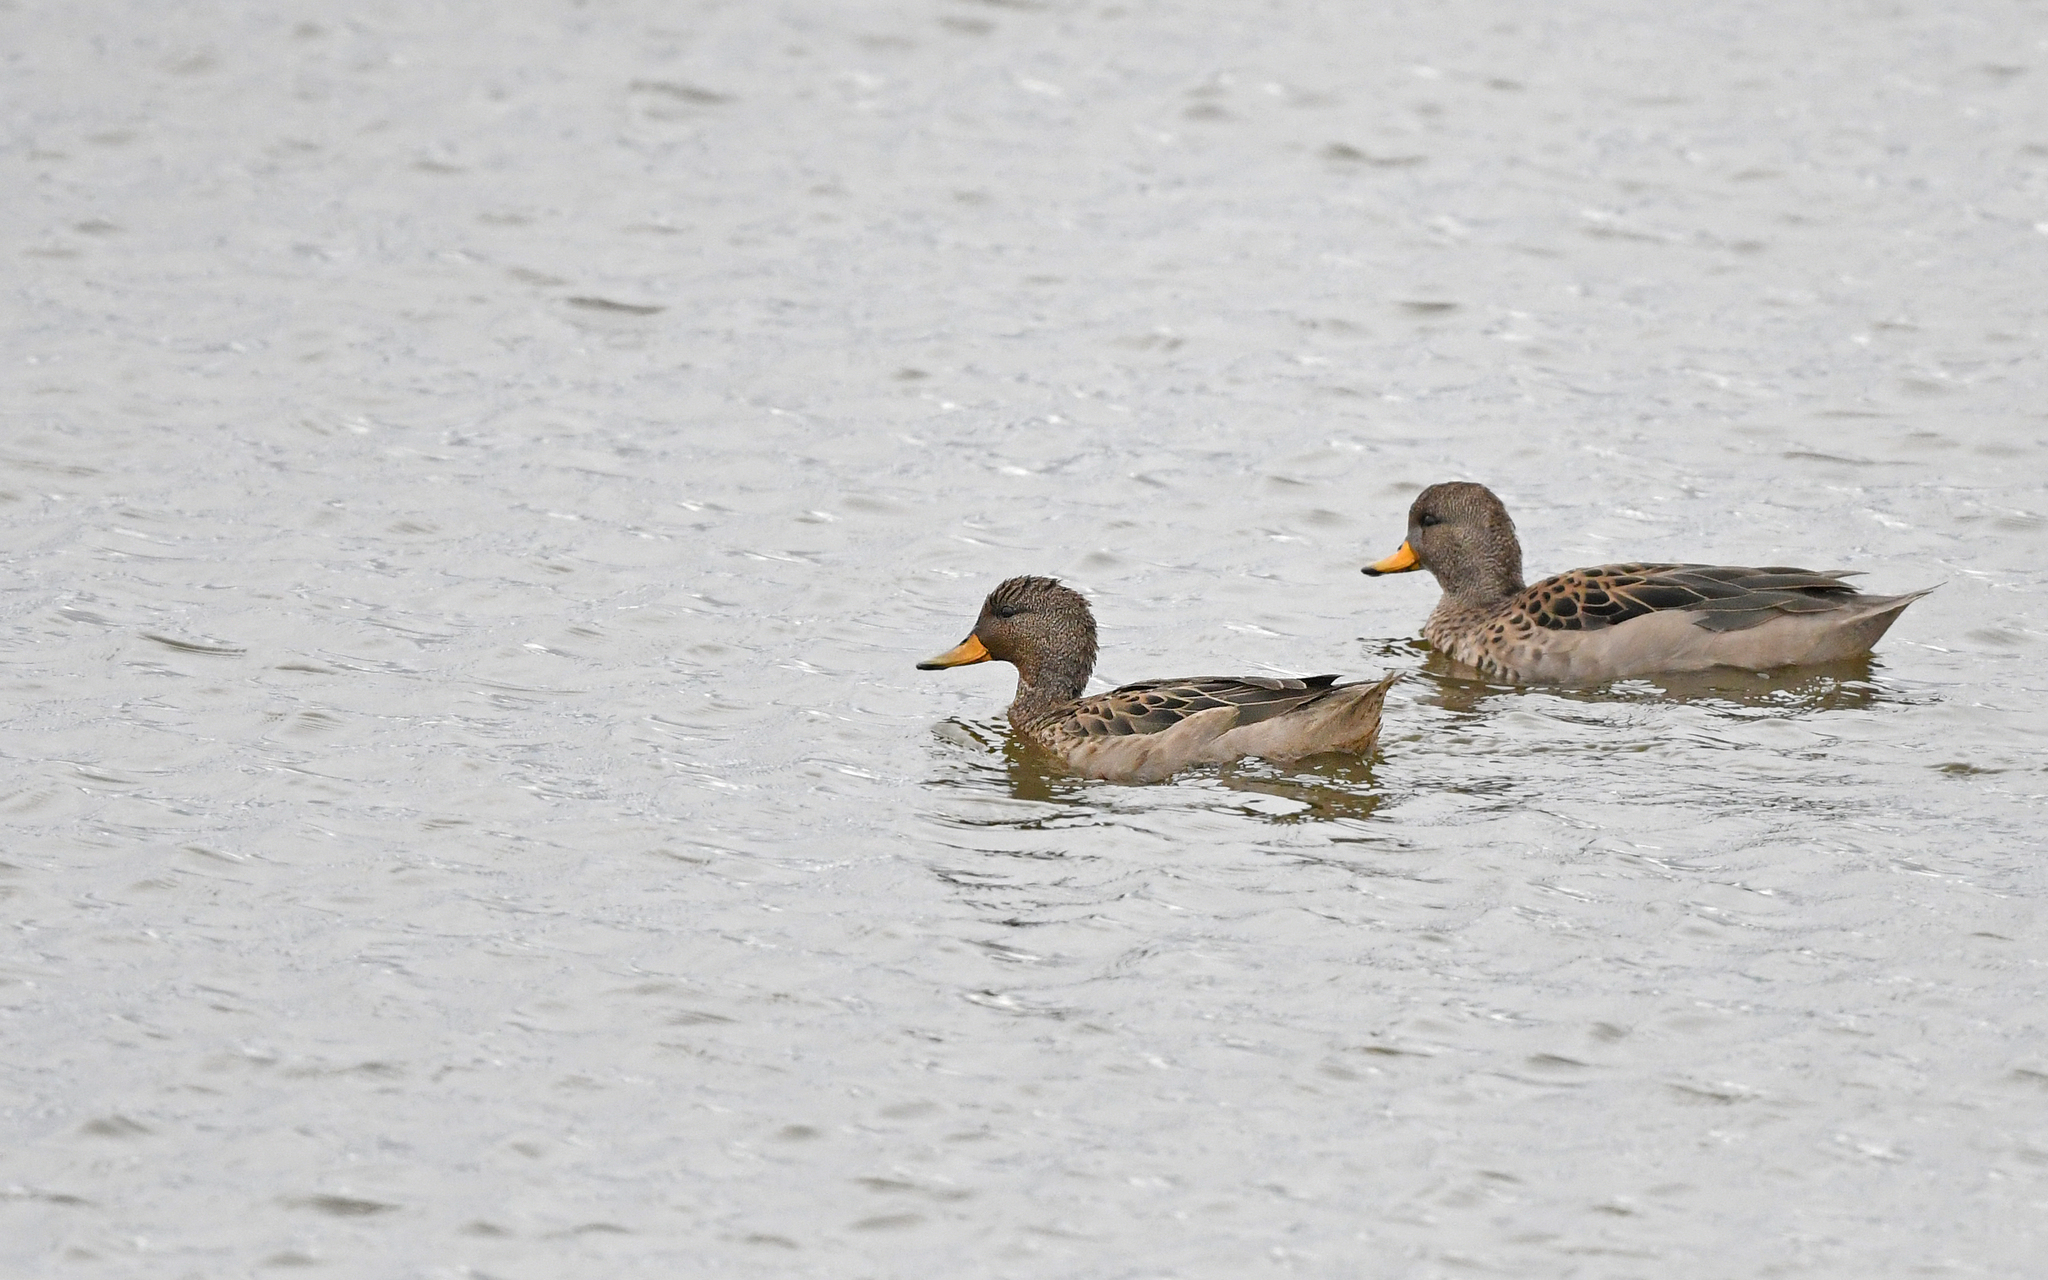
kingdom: Animalia
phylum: Chordata
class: Aves
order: Anseriformes
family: Anatidae
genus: Anas
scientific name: Anas flavirostris
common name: Yellow-billed teal
